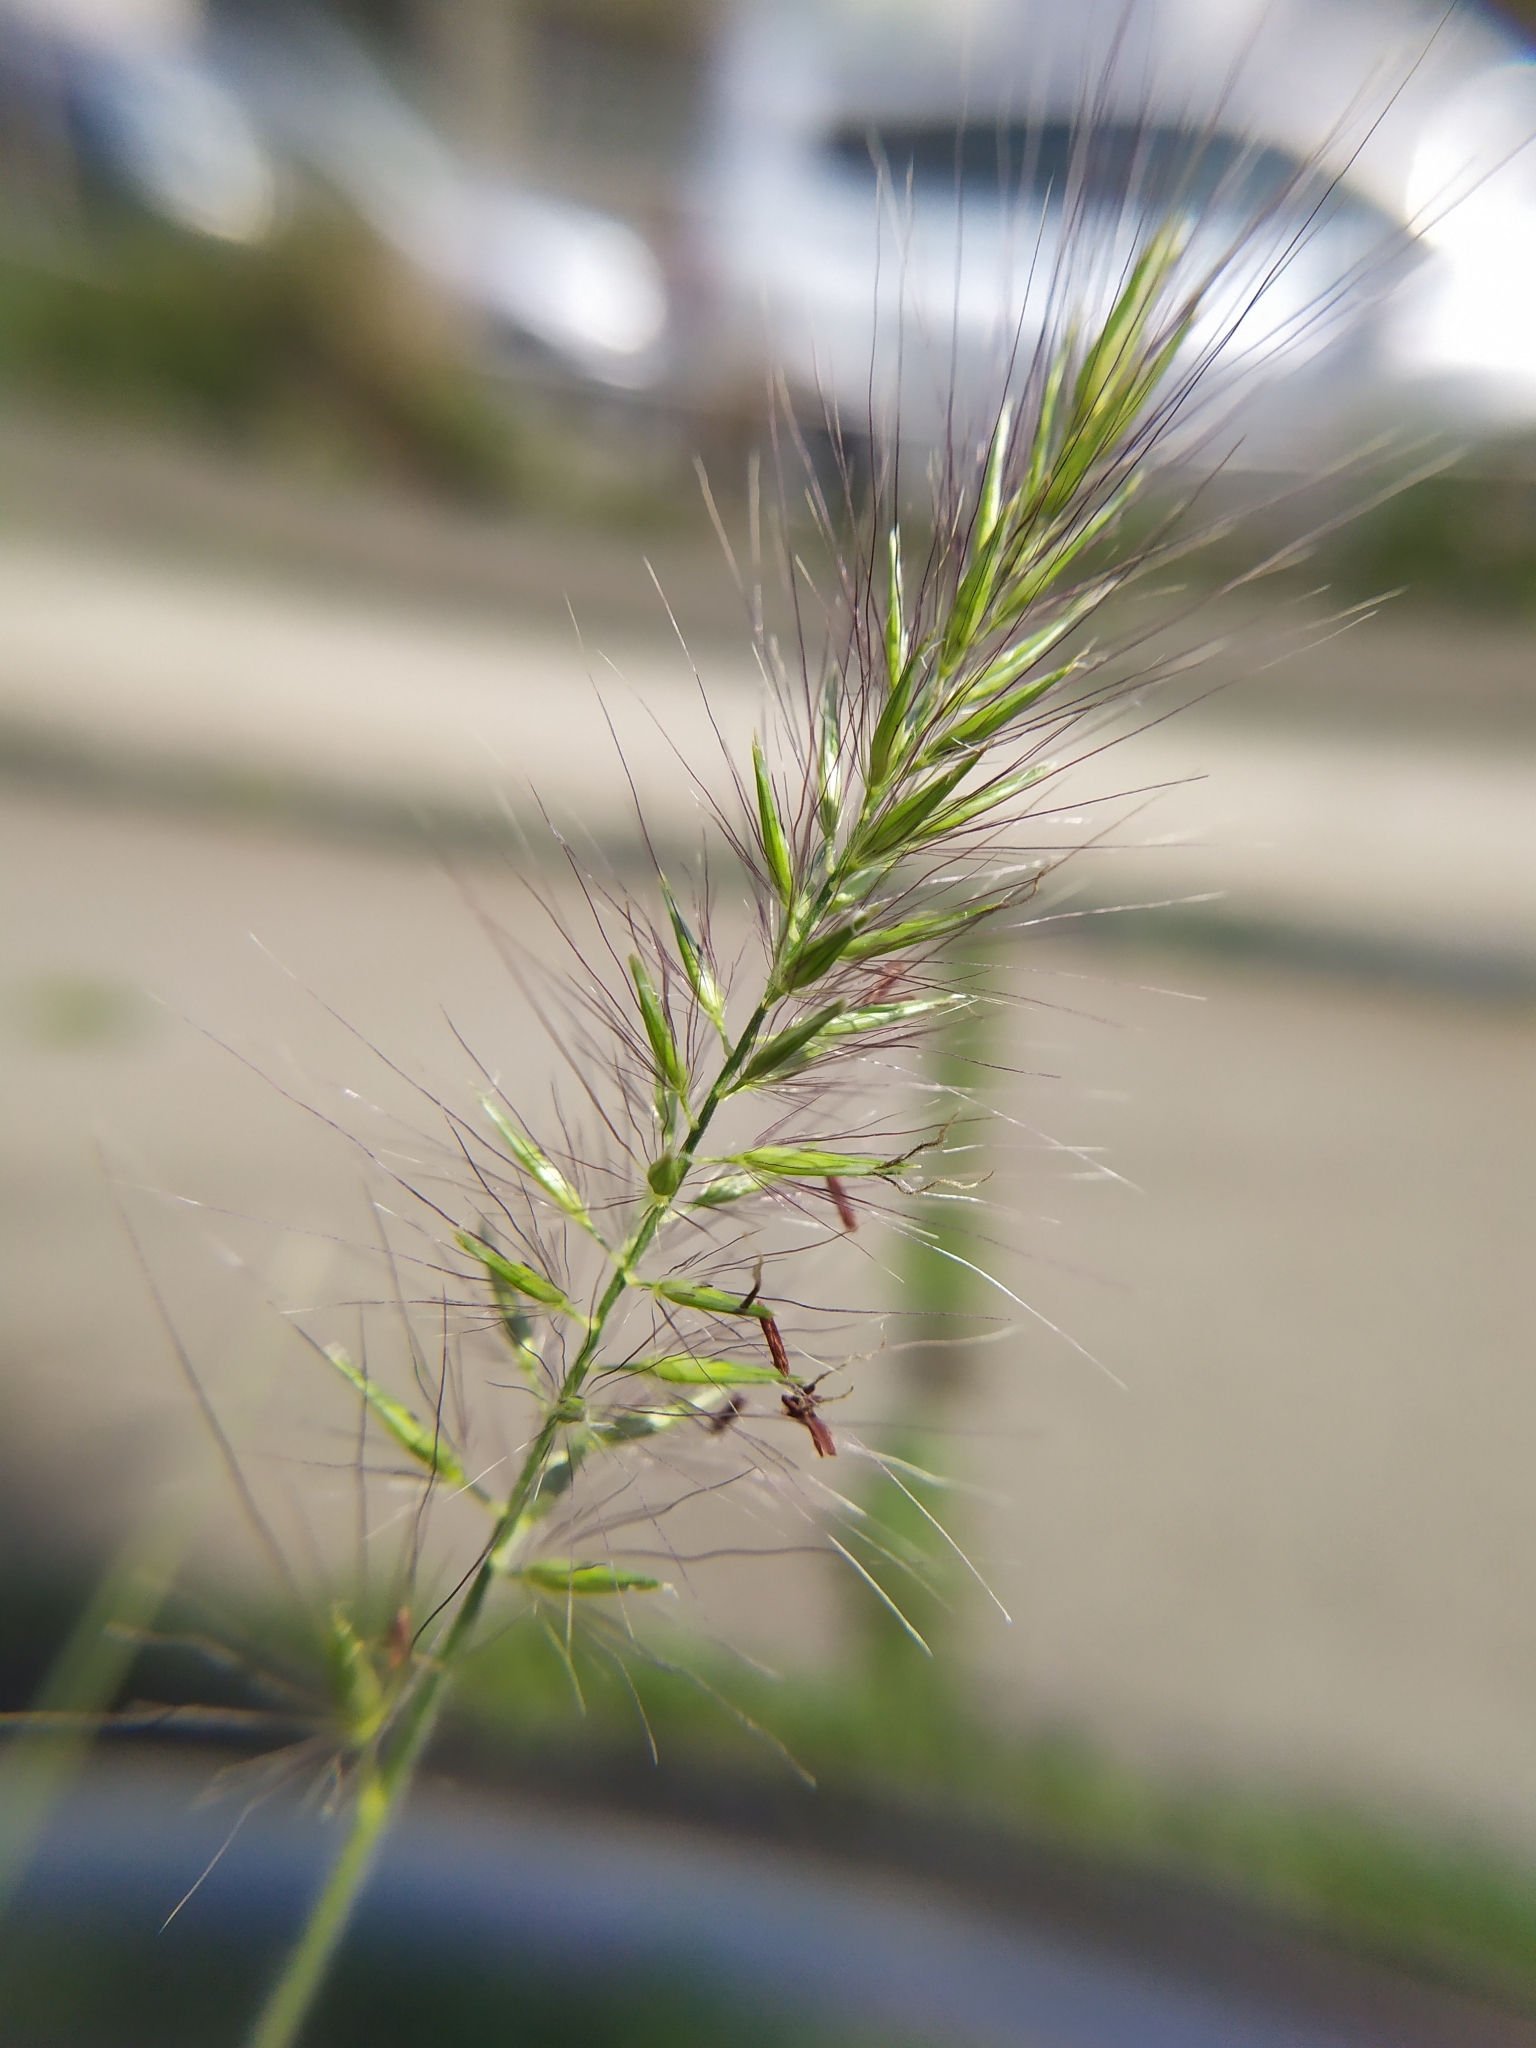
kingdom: Plantae
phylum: Tracheophyta
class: Liliopsida
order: Poales
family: Poaceae
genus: Cenchrus
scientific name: Cenchrus alopecuroides
